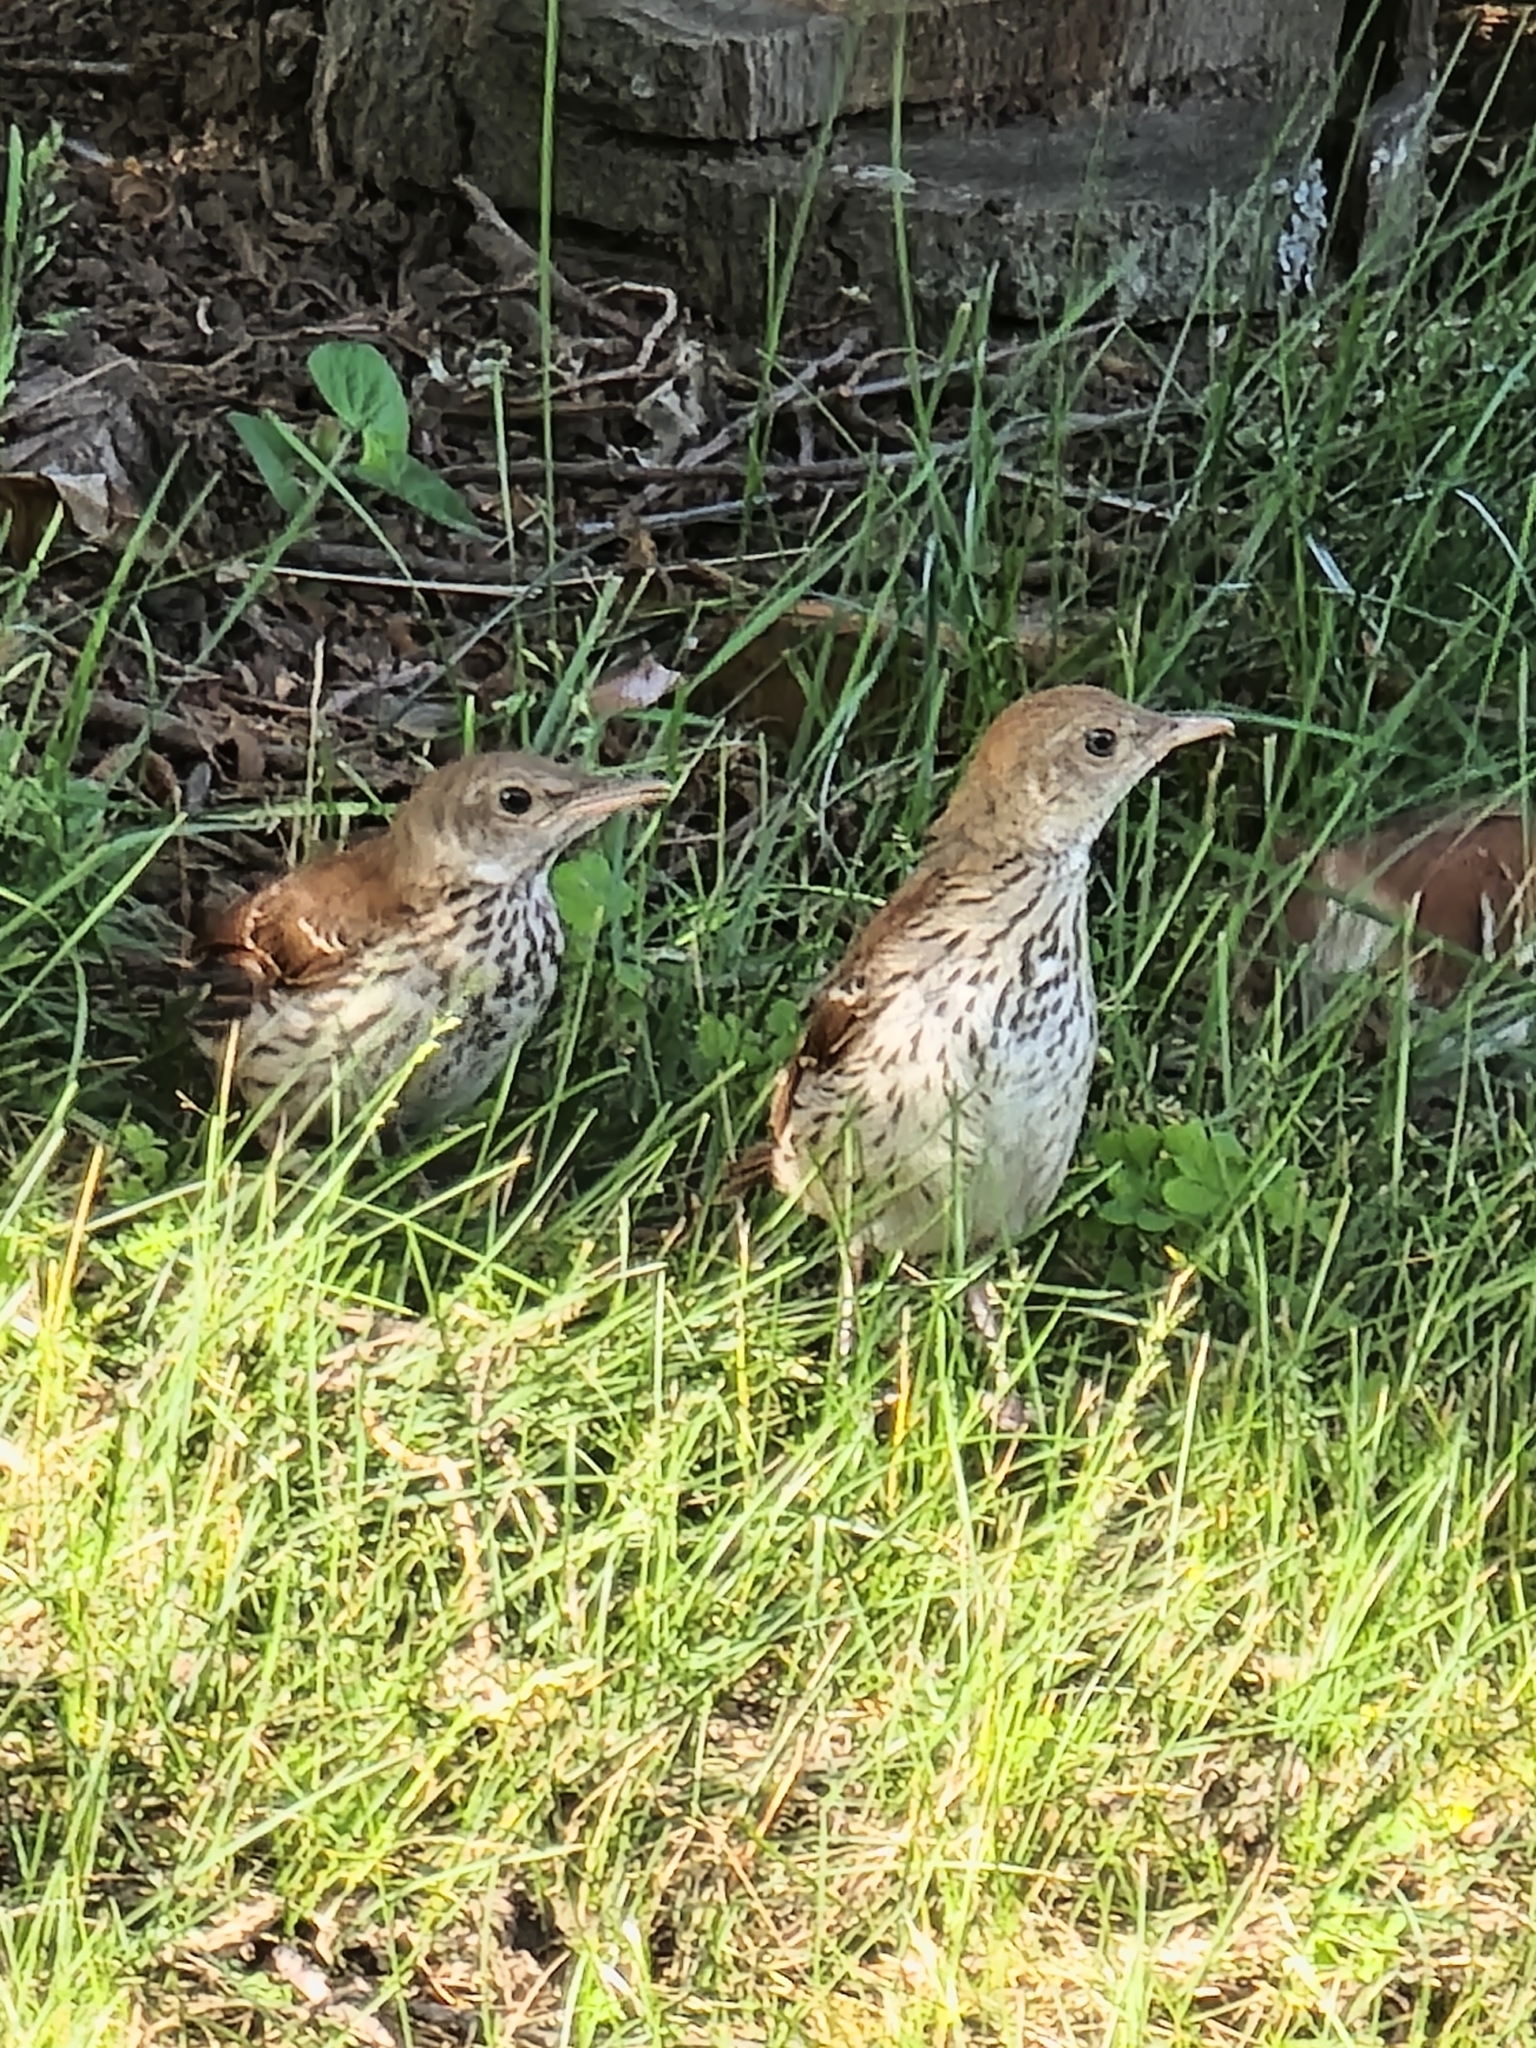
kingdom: Animalia
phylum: Chordata
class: Aves
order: Passeriformes
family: Mimidae
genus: Toxostoma
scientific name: Toxostoma rufum
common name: Brown thrasher
